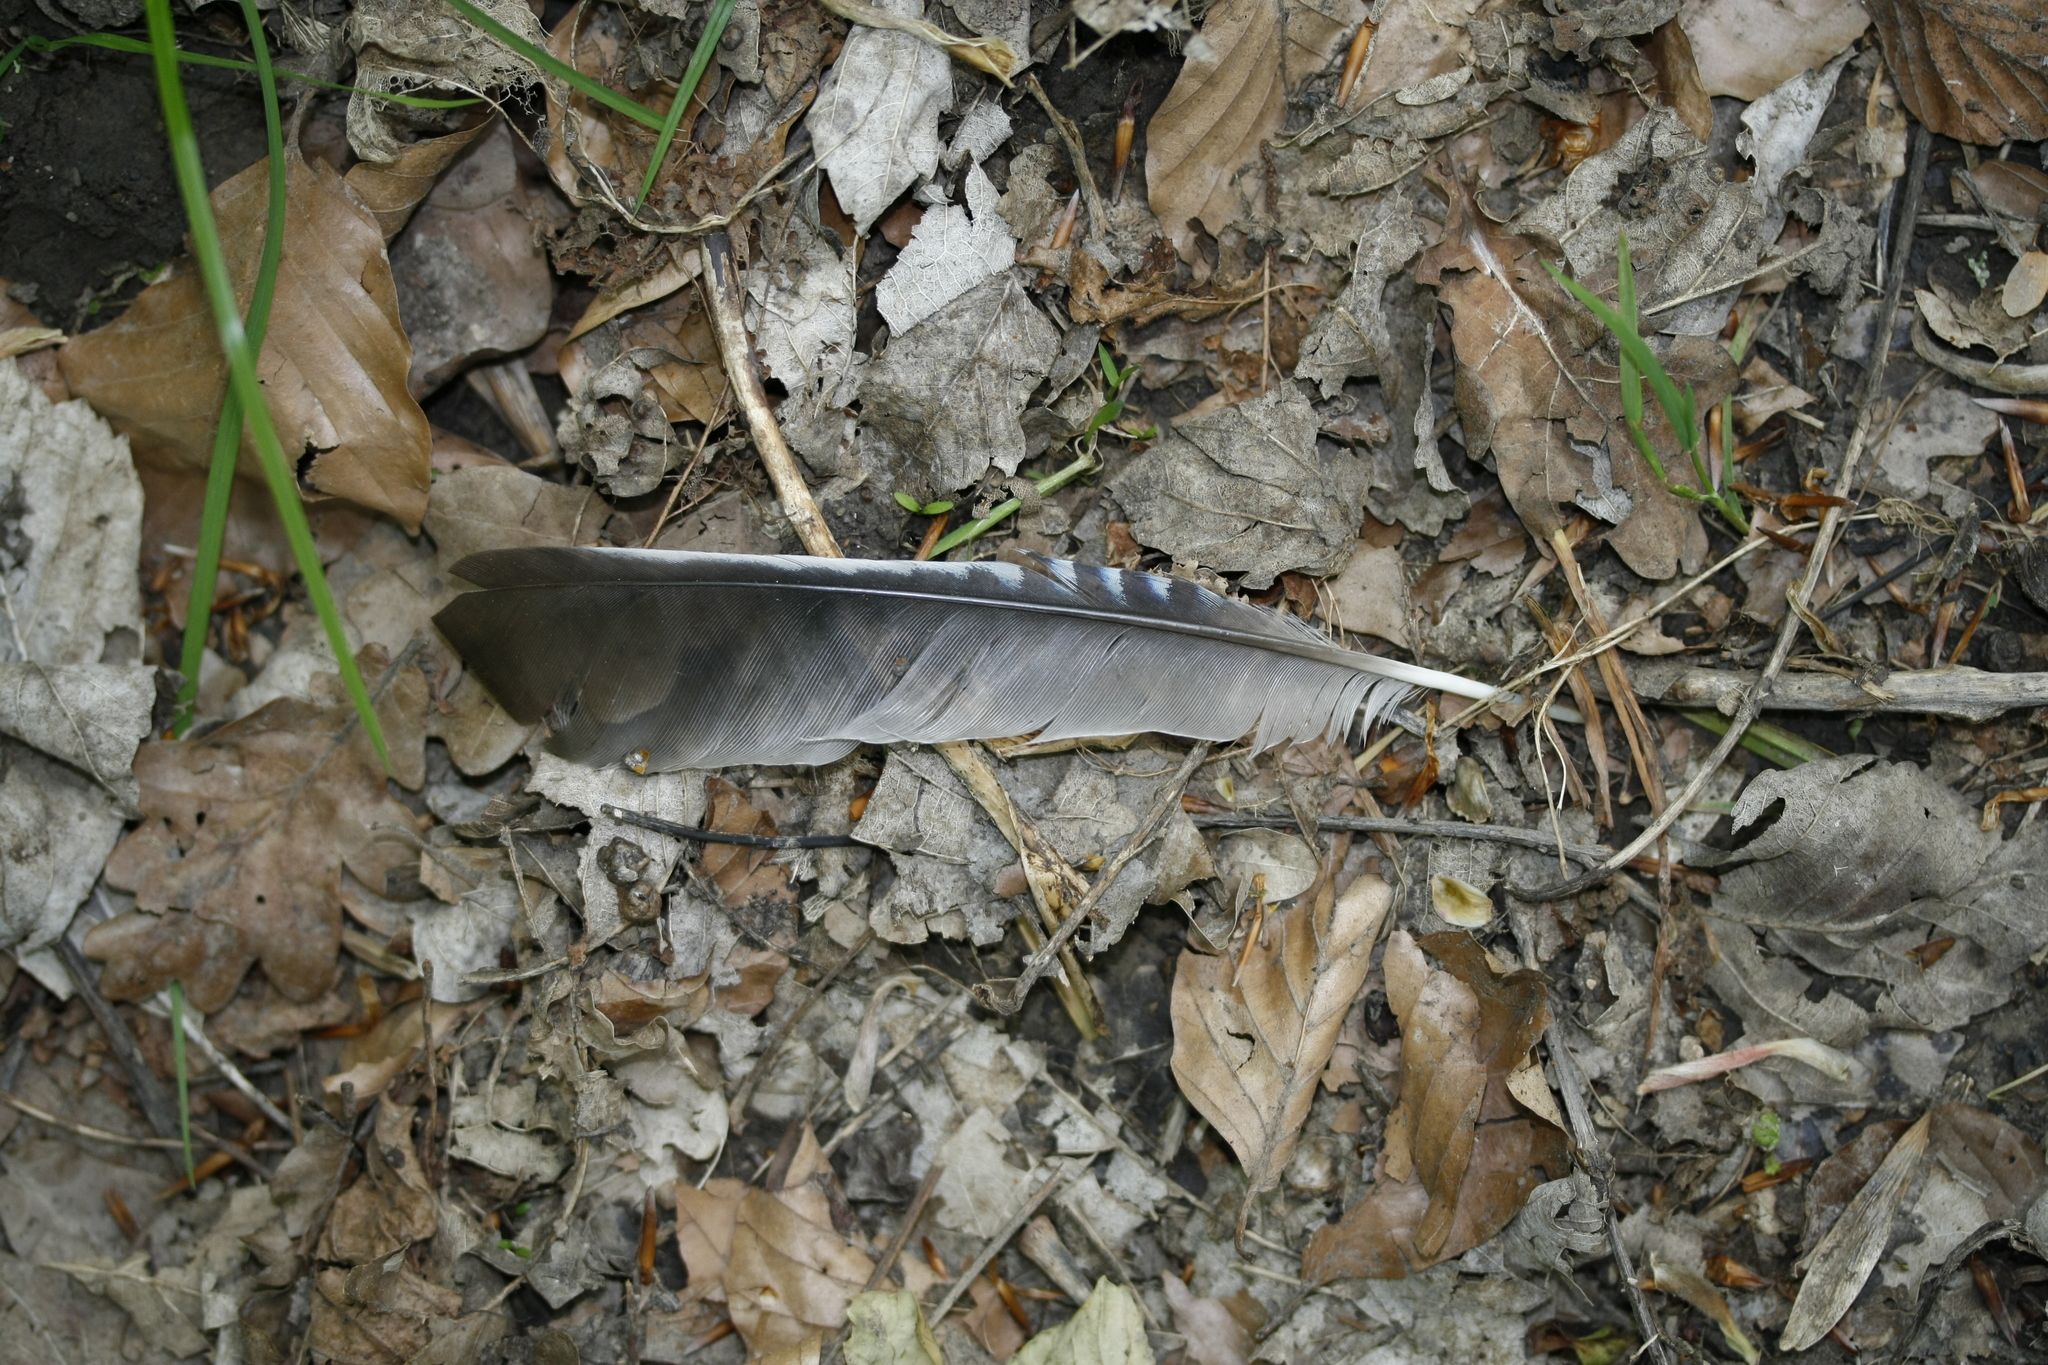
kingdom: Animalia
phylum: Chordata
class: Aves
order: Passeriformes
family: Corvidae
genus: Garrulus
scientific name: Garrulus glandarius
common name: Eurasian jay
